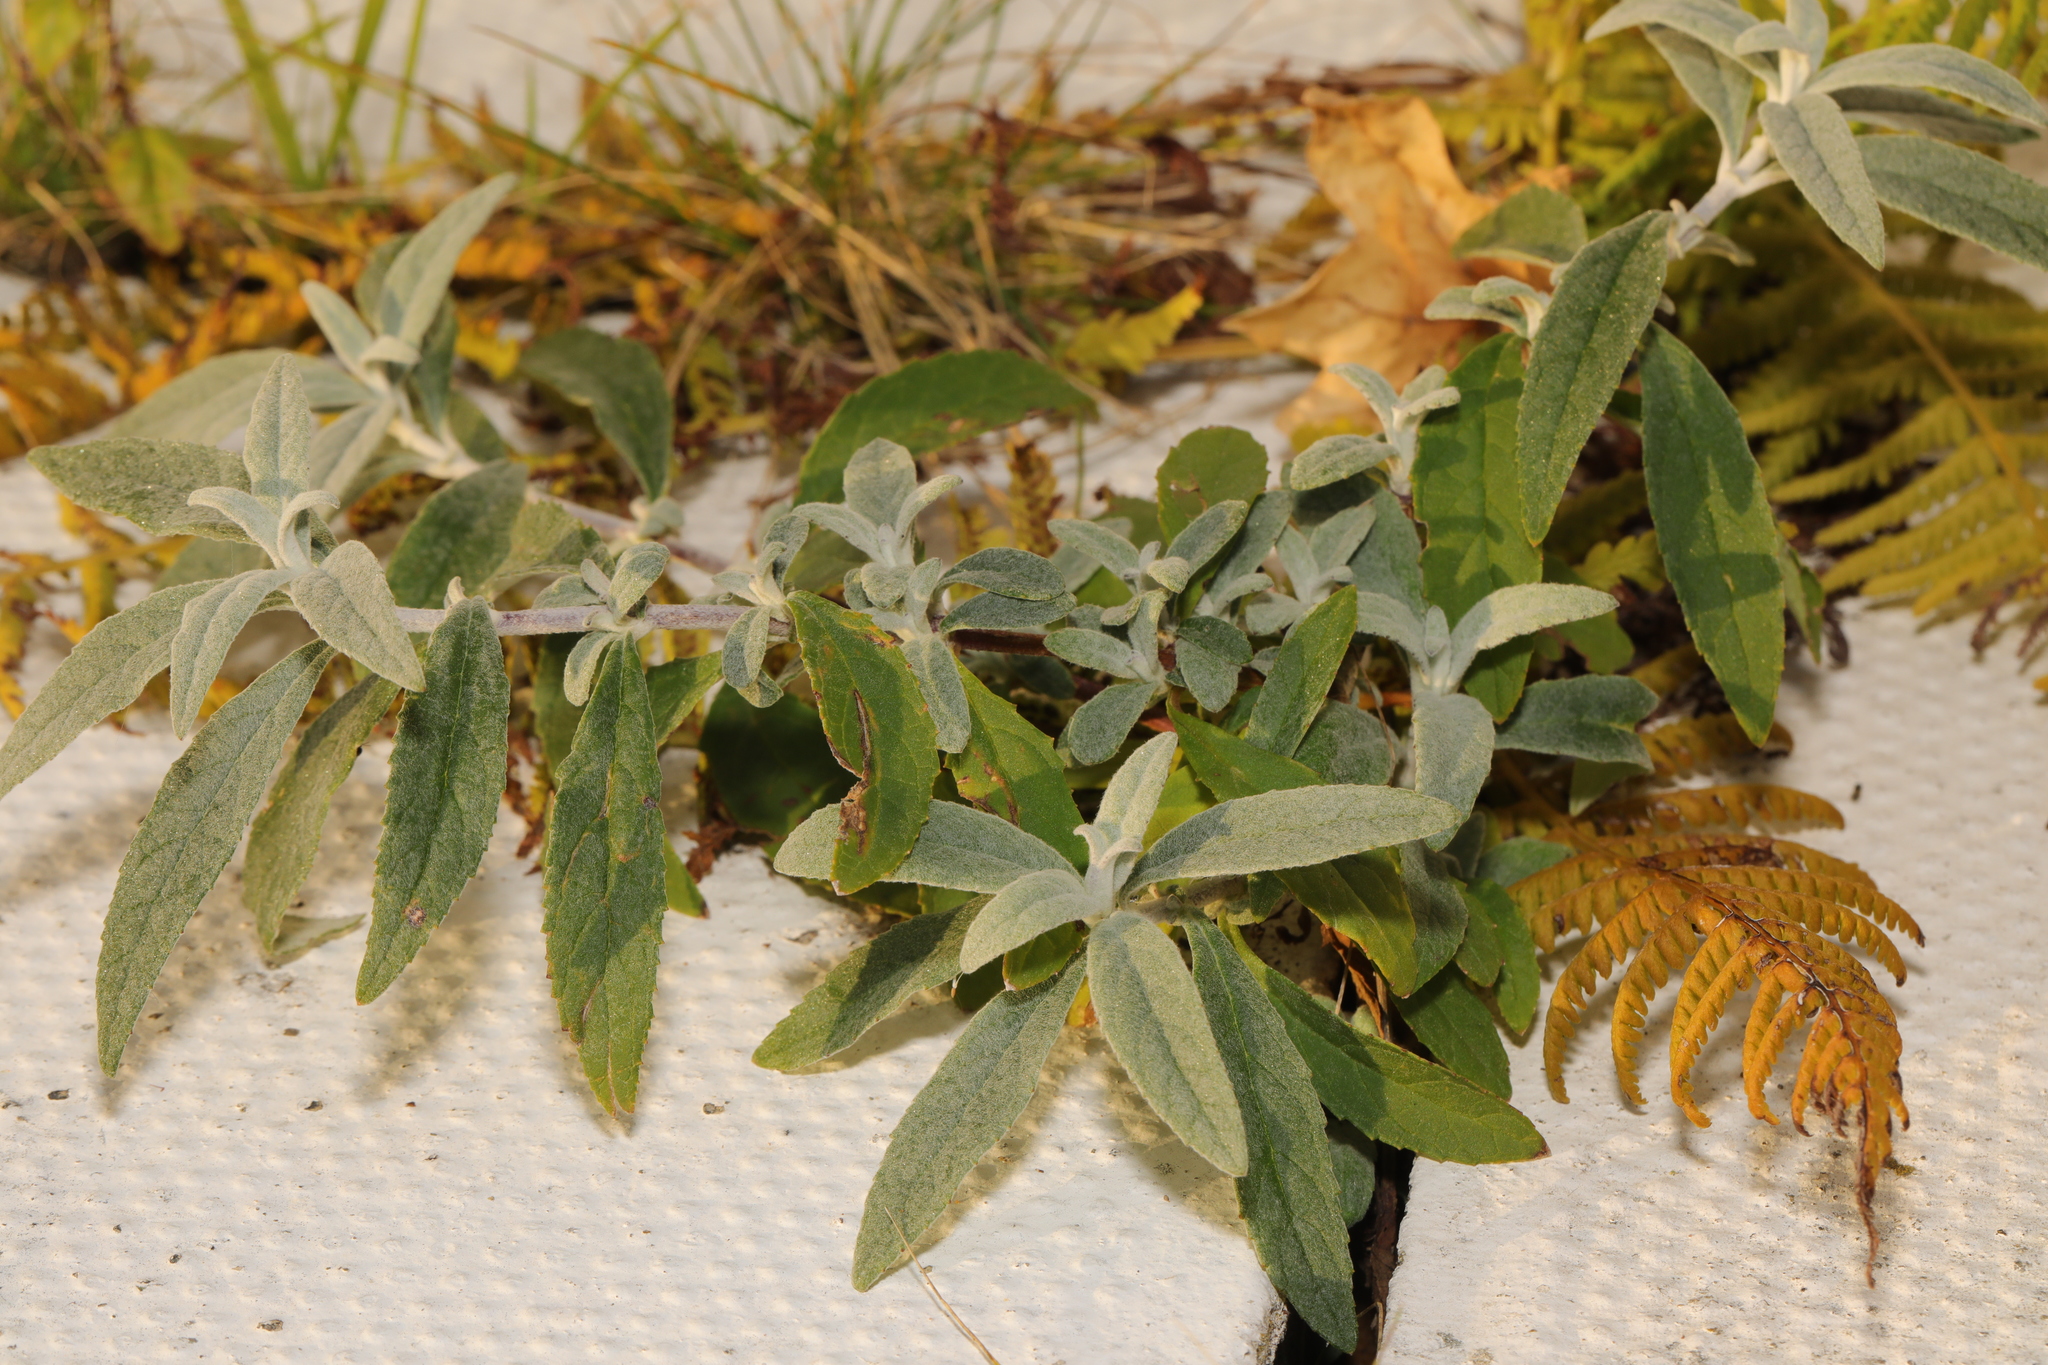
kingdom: Plantae
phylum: Tracheophyta
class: Magnoliopsida
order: Lamiales
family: Scrophulariaceae
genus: Buddleja
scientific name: Buddleja davidii
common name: Butterfly-bush
